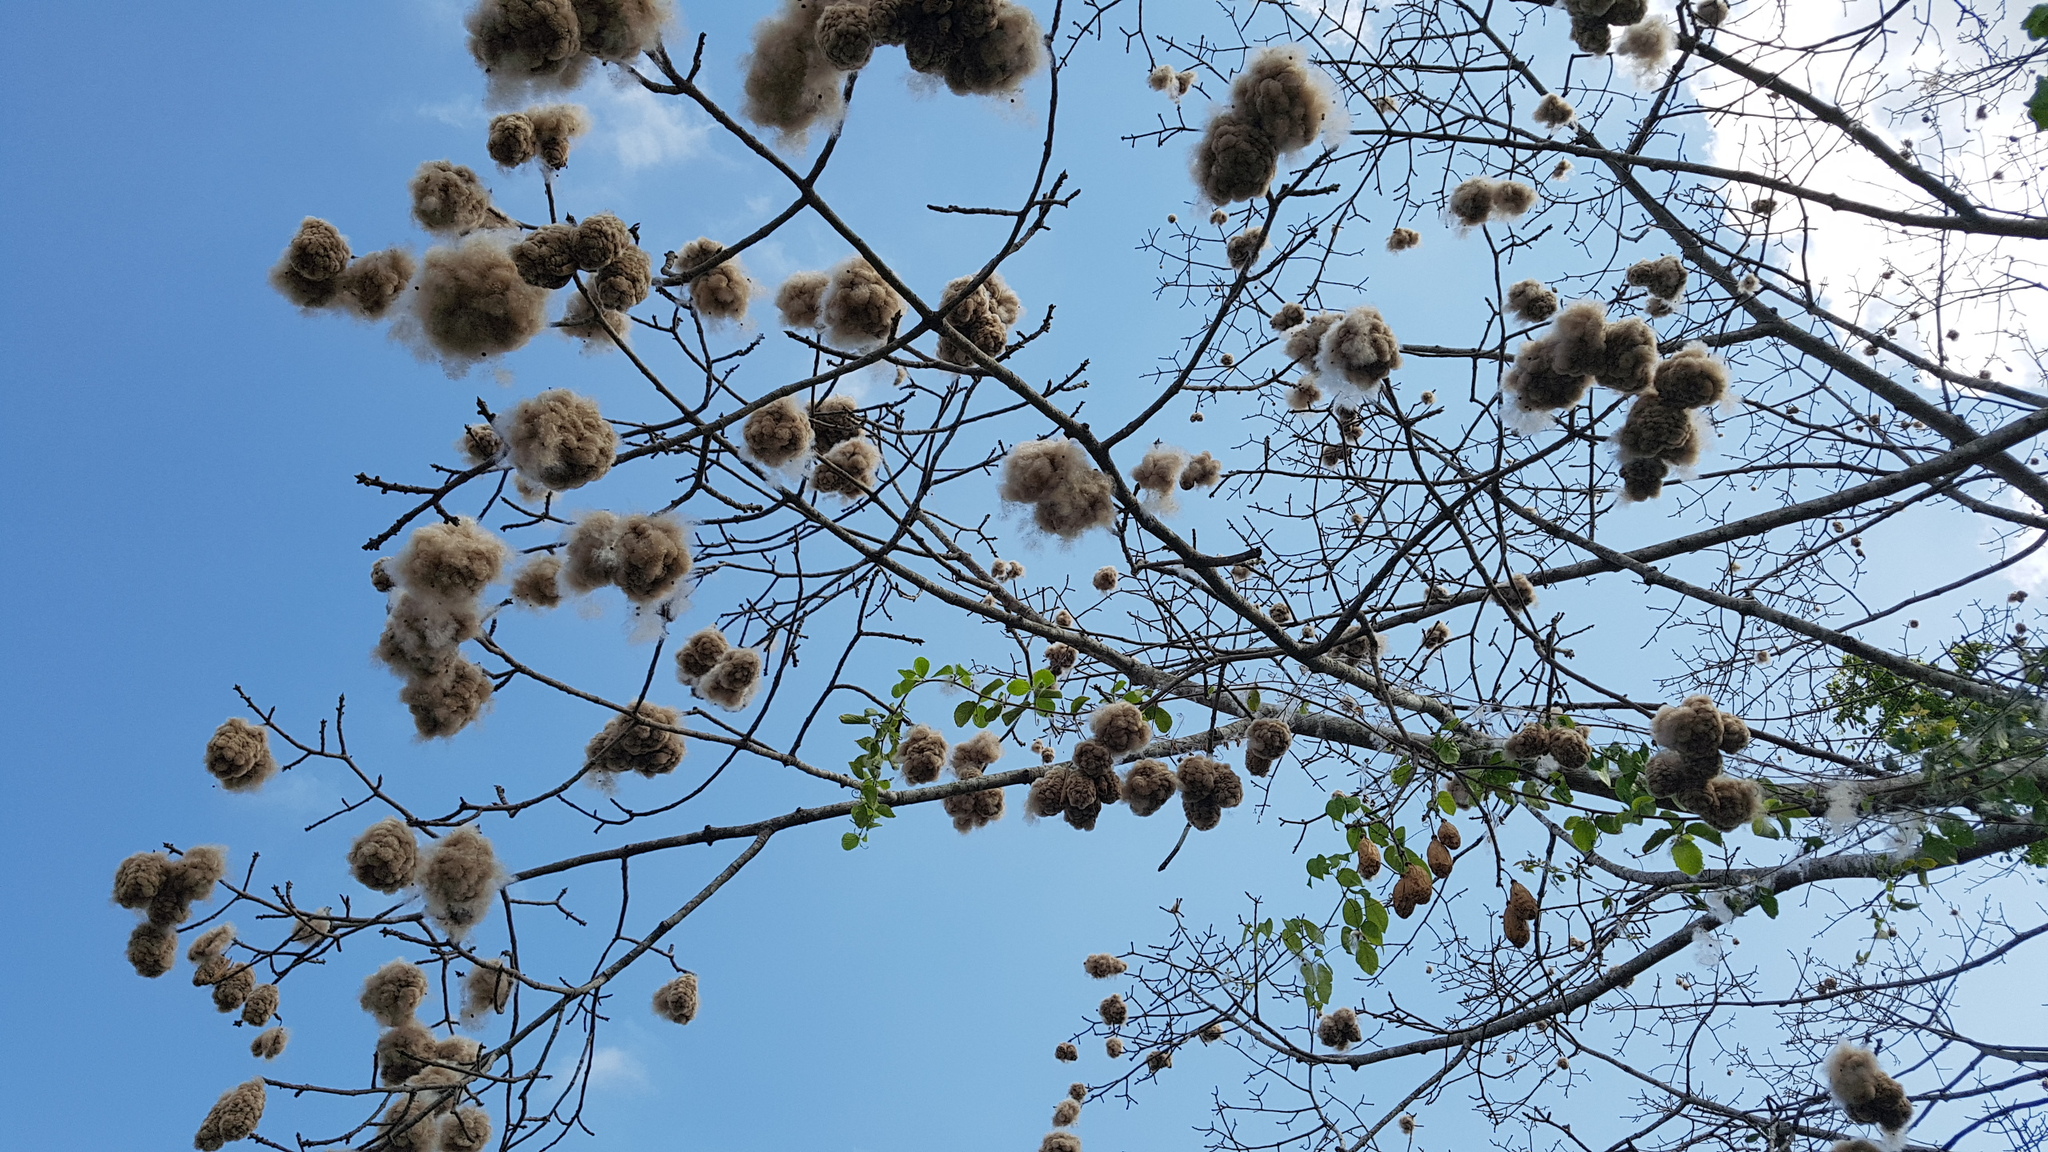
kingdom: Plantae
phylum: Tracheophyta
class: Magnoliopsida
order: Malvales
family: Malvaceae
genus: Ceiba
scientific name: Ceiba pentandra
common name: Kapok
